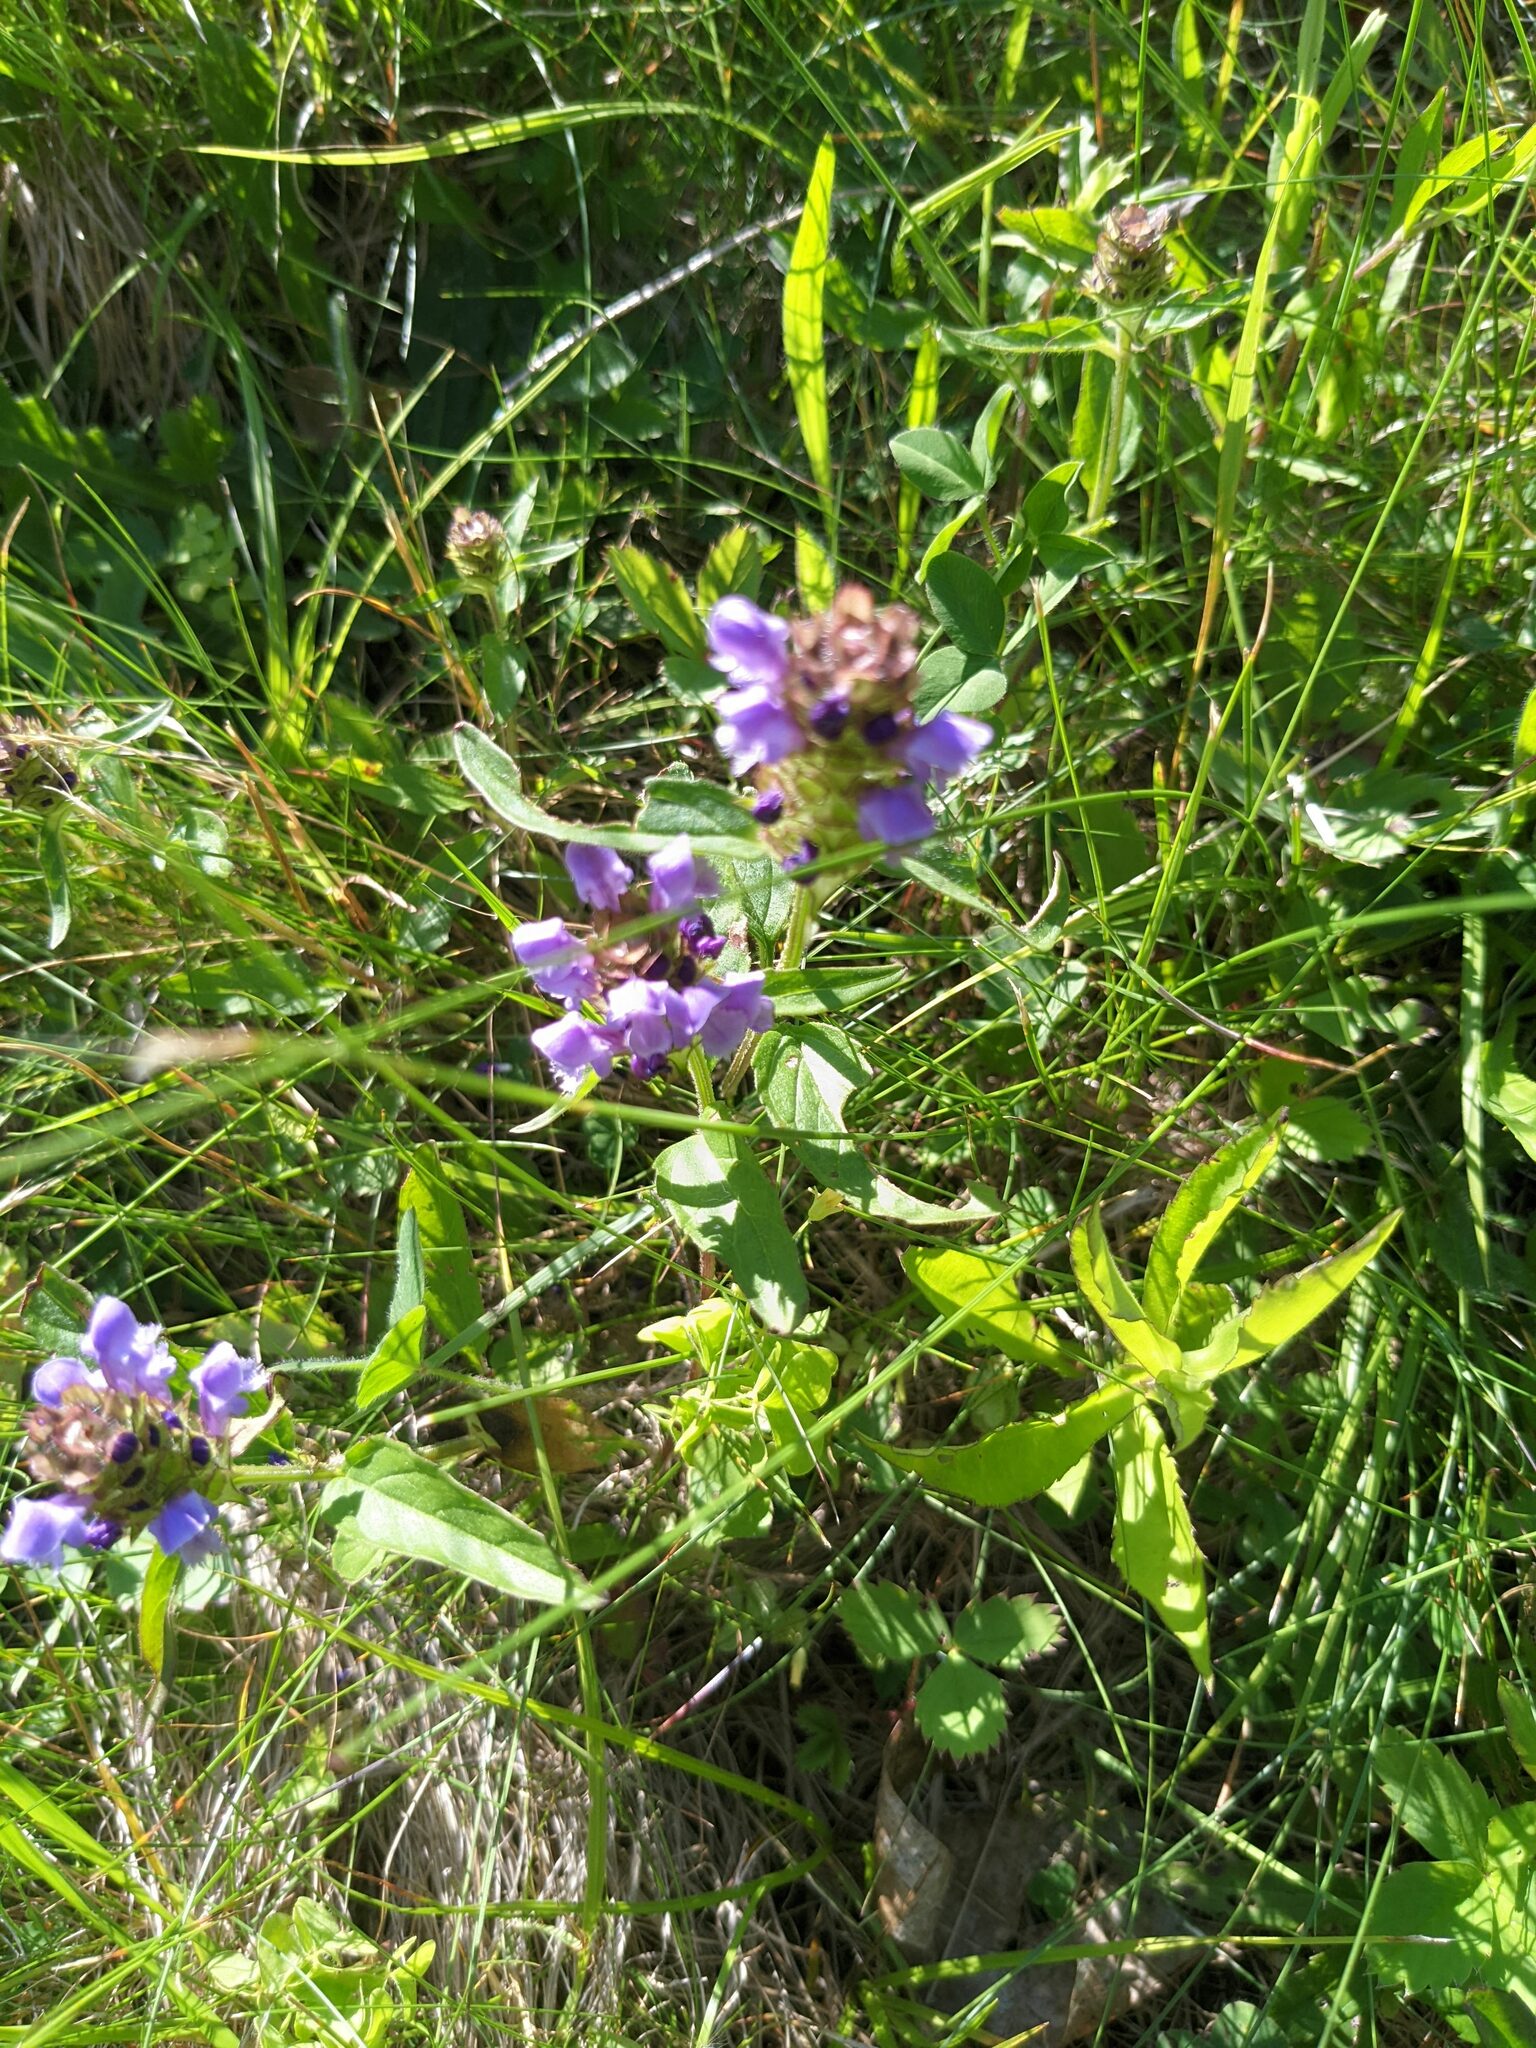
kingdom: Plantae
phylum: Tracheophyta
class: Magnoliopsida
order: Lamiales
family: Lamiaceae
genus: Prunella
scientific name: Prunella vulgaris
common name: Heal-all
